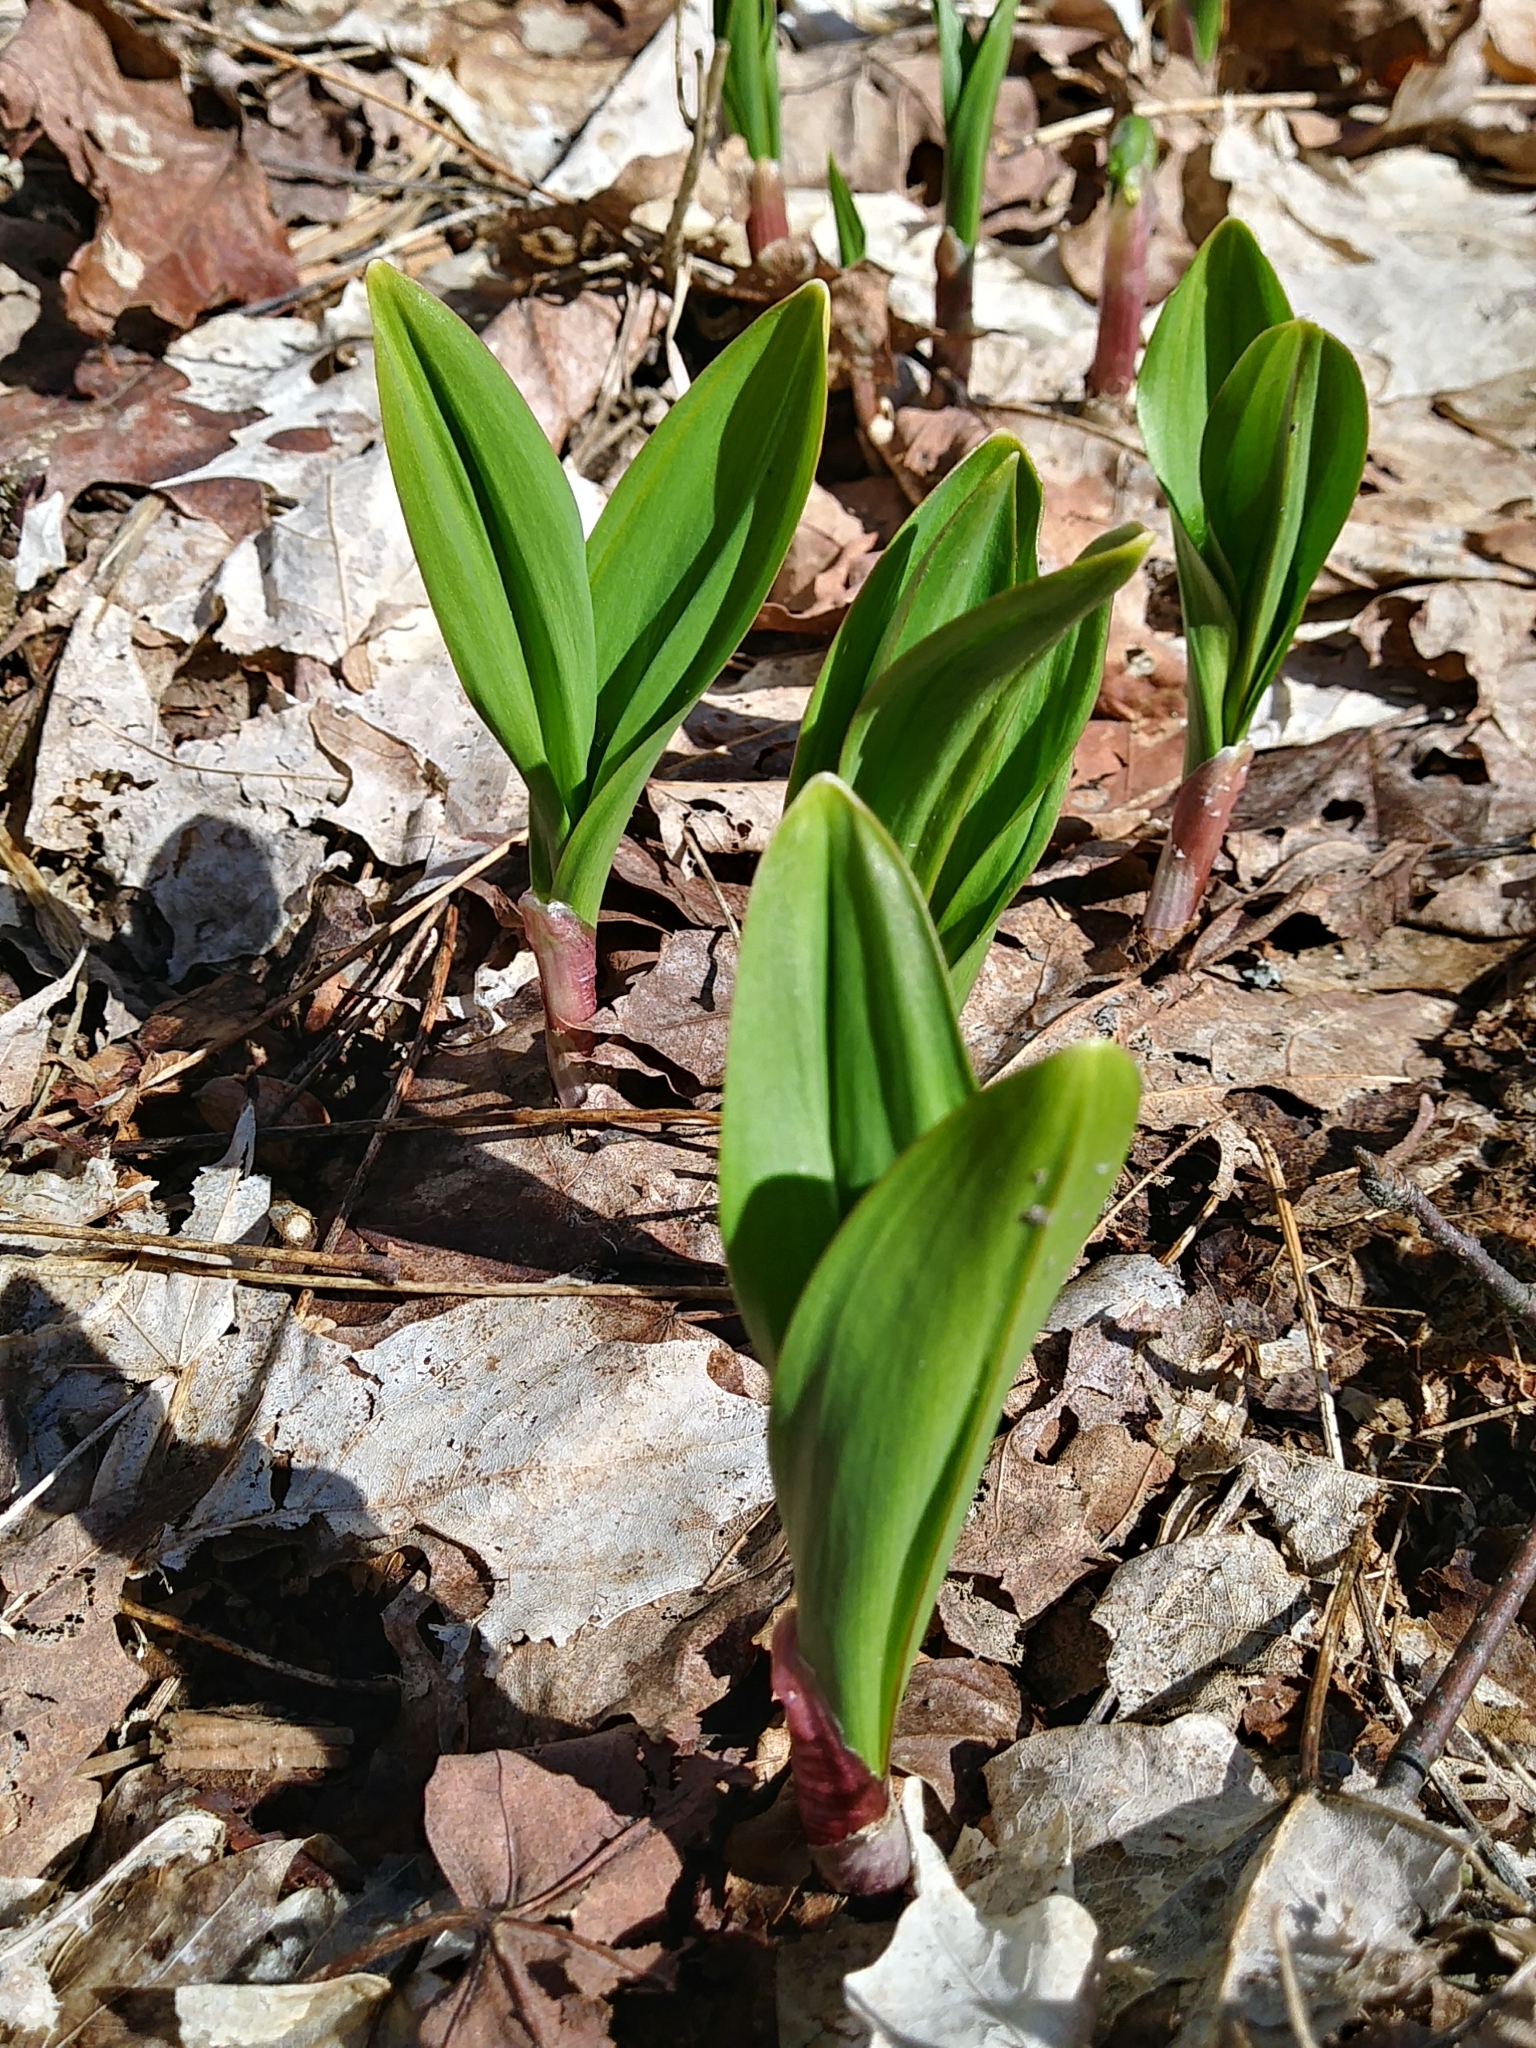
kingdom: Plantae
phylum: Tracheophyta
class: Liliopsida
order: Asparagales
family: Amaryllidaceae
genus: Allium
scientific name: Allium tricoccum
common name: Ramp
